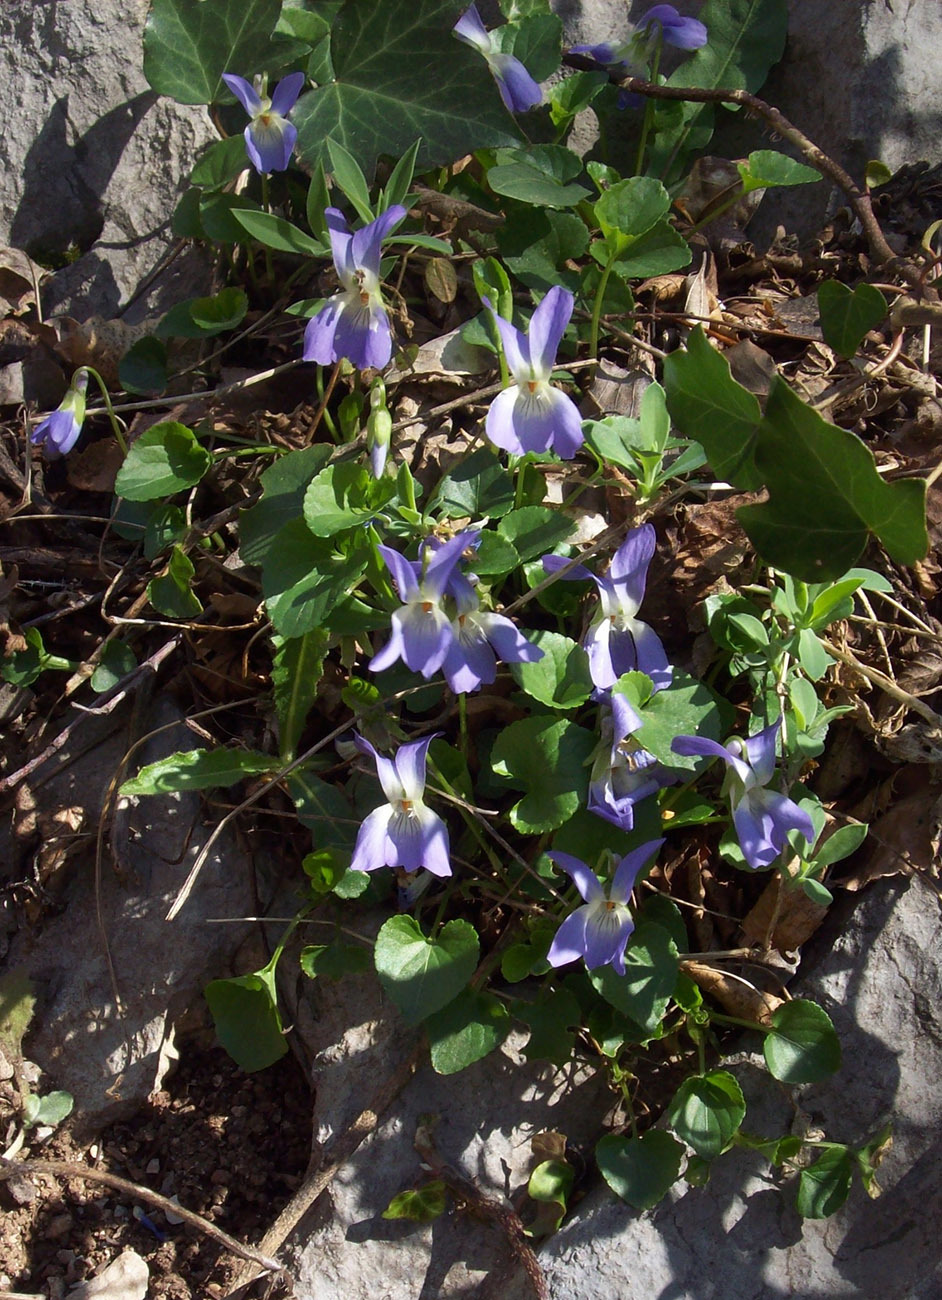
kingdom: Plantae
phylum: Tracheophyta
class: Magnoliopsida
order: Malpighiales
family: Violaceae
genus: Viola
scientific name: Viola suavis
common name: Russian violet
